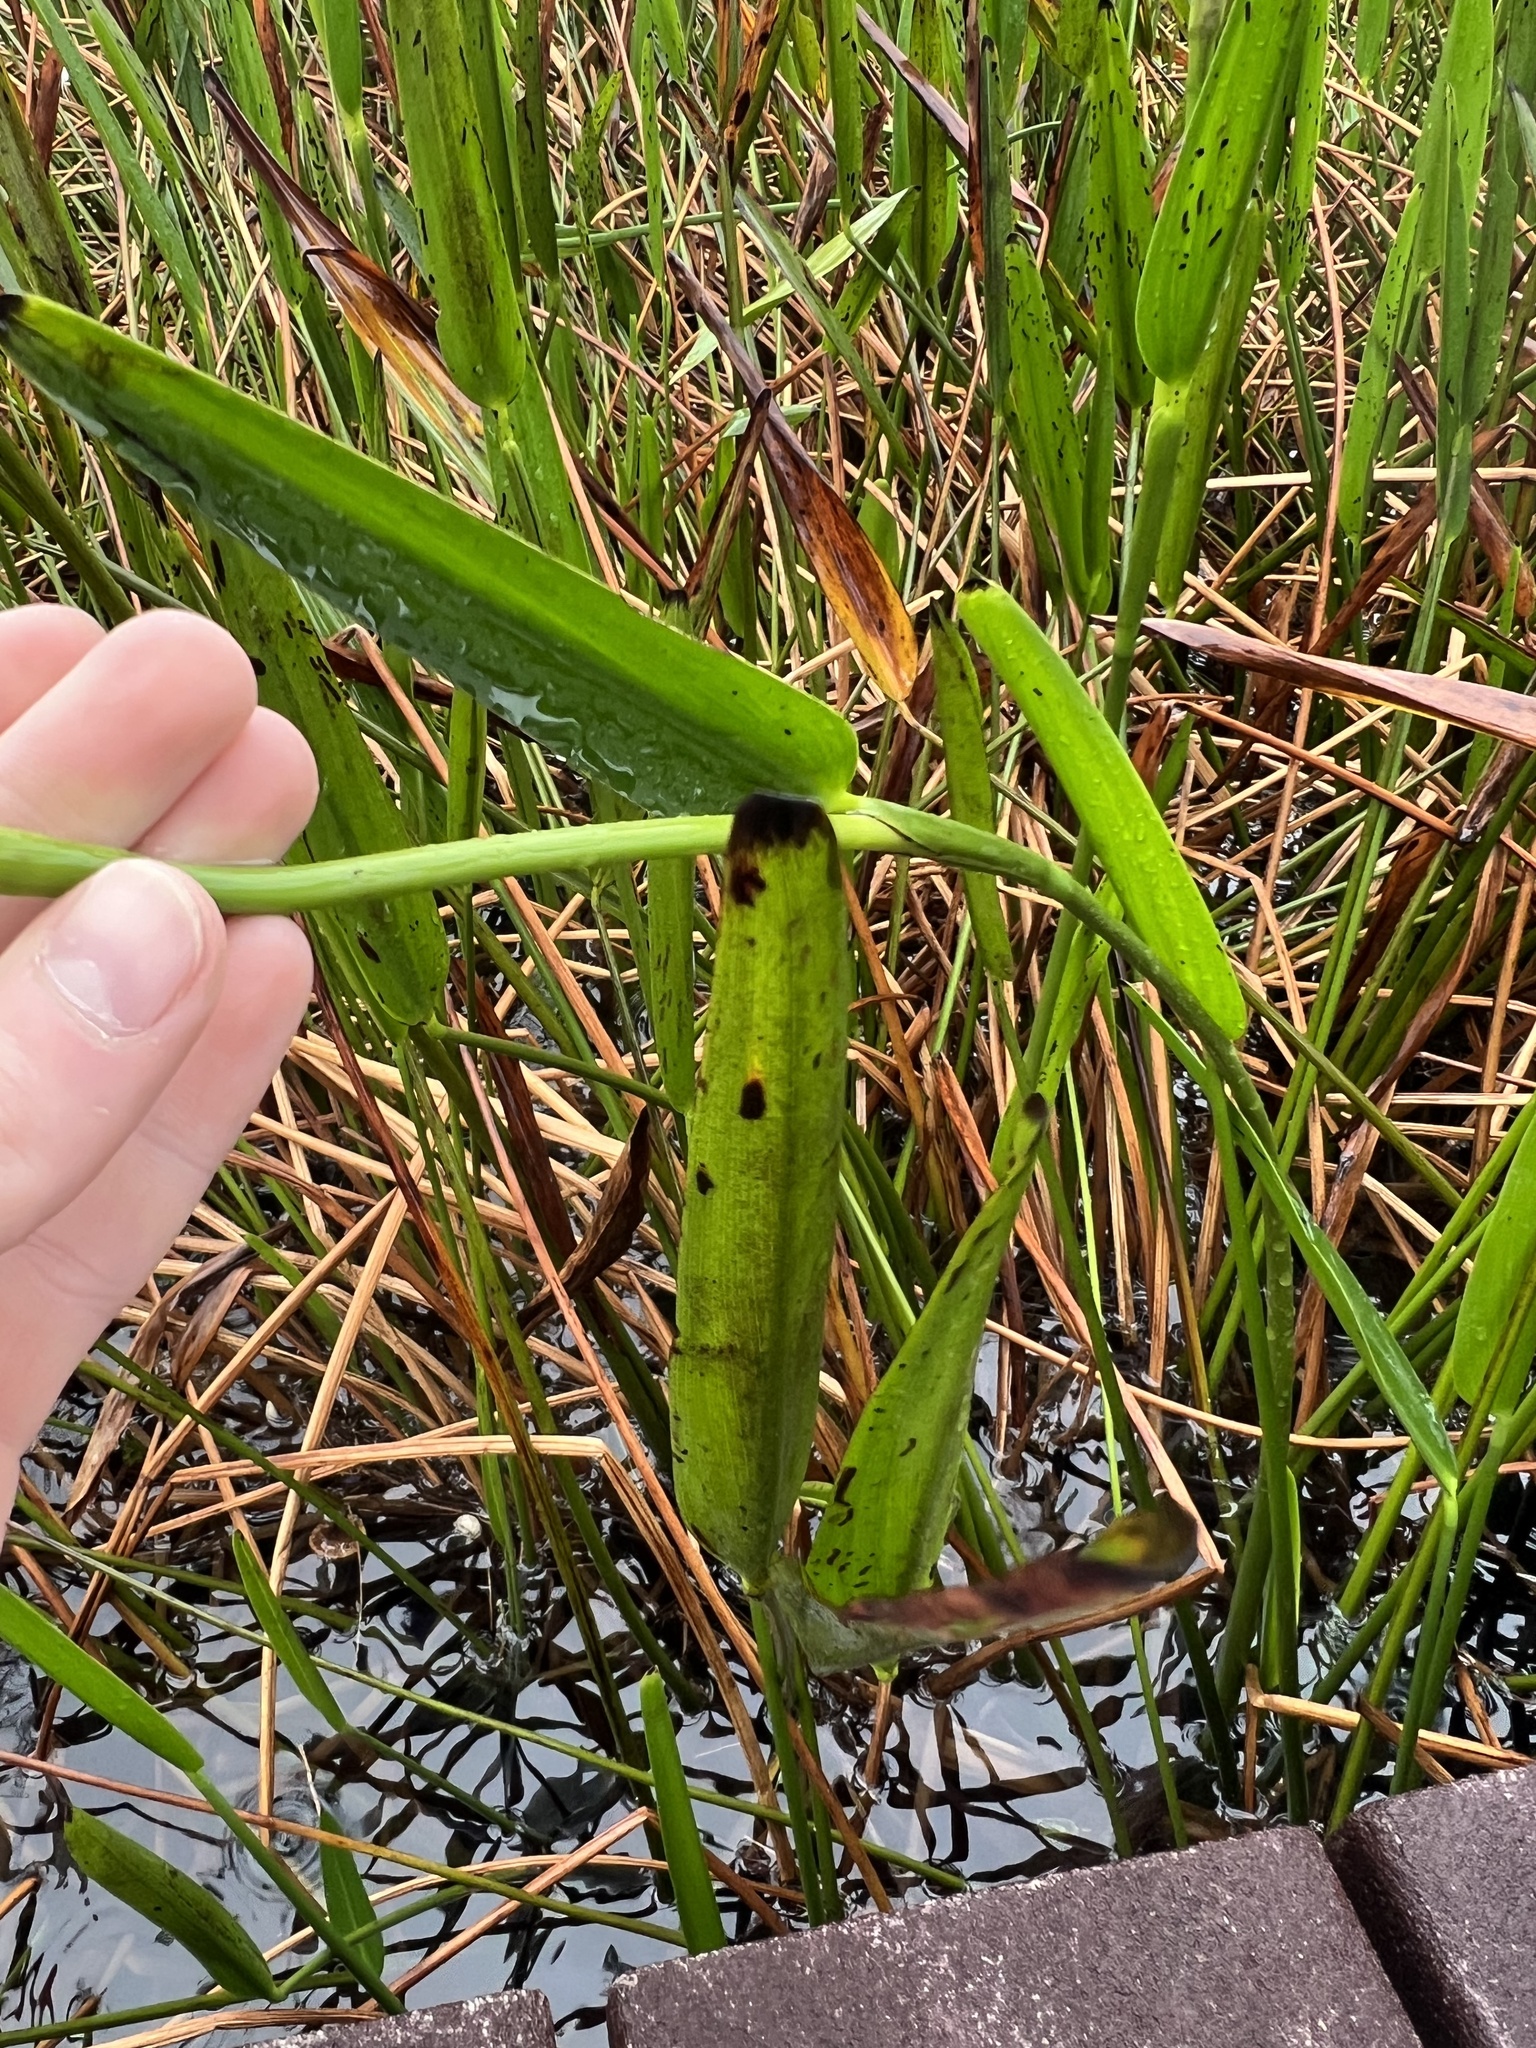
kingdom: Plantae
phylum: Tracheophyta
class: Liliopsida
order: Commelinales
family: Pontederiaceae
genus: Pontederia
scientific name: Pontederia cordata
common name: Pickerelweed
